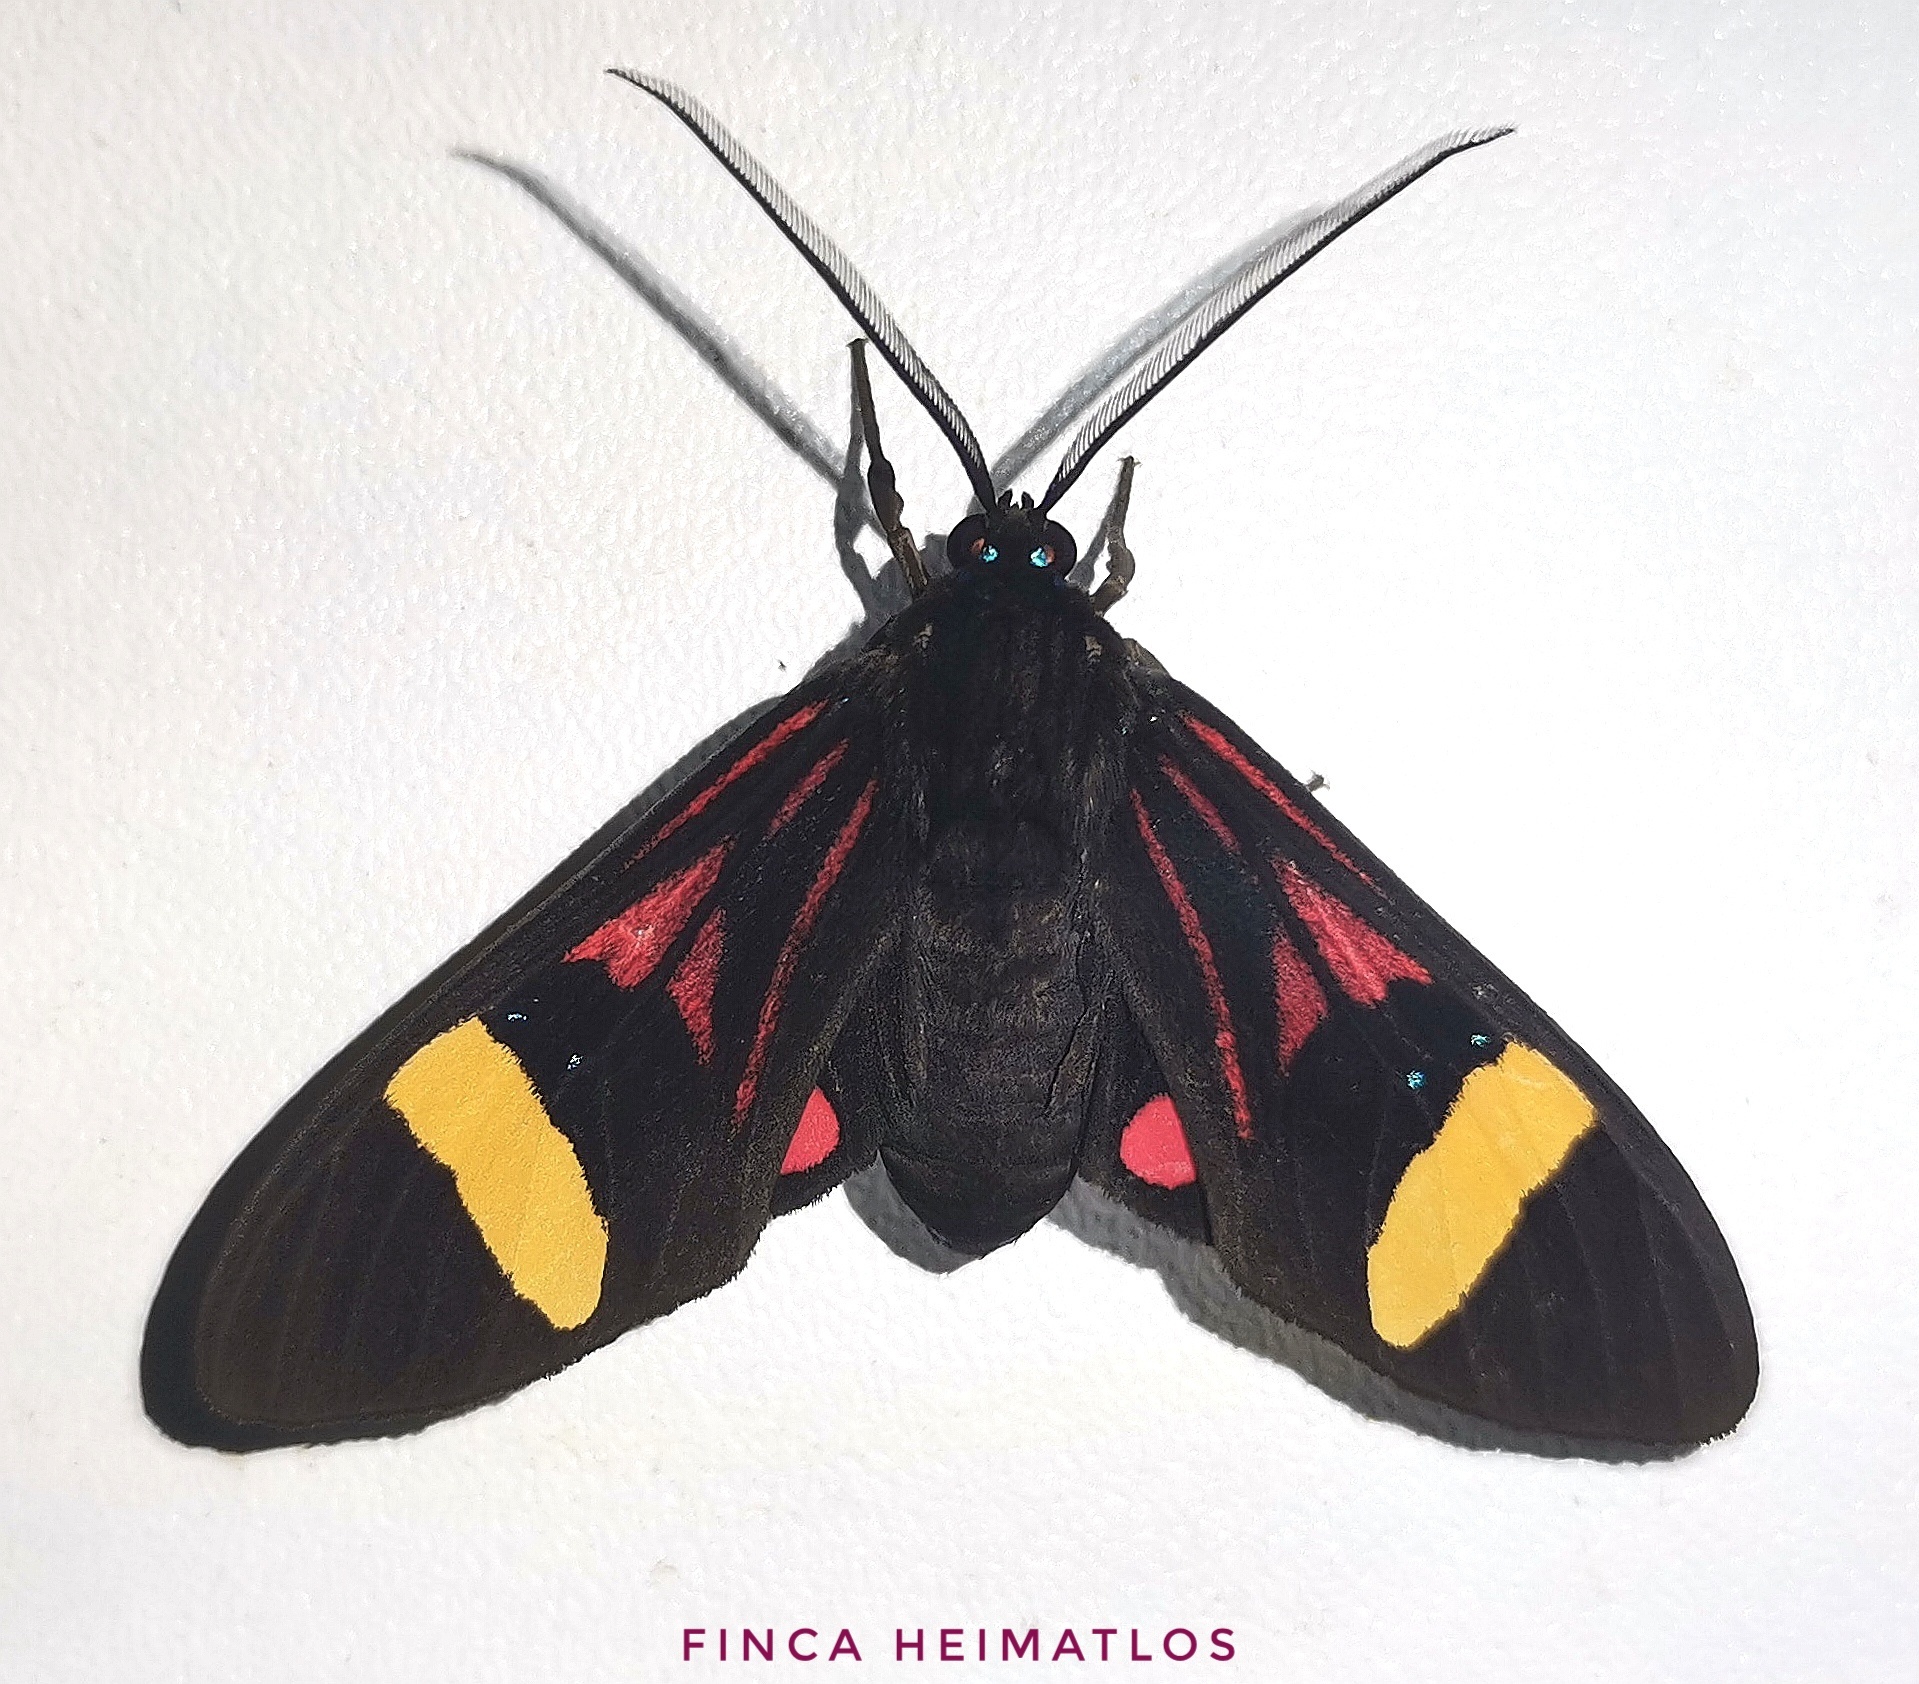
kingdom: Animalia
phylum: Arthropoda
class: Insecta
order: Lepidoptera
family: Erebidae
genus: Histioea
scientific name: Histioea proserpina
